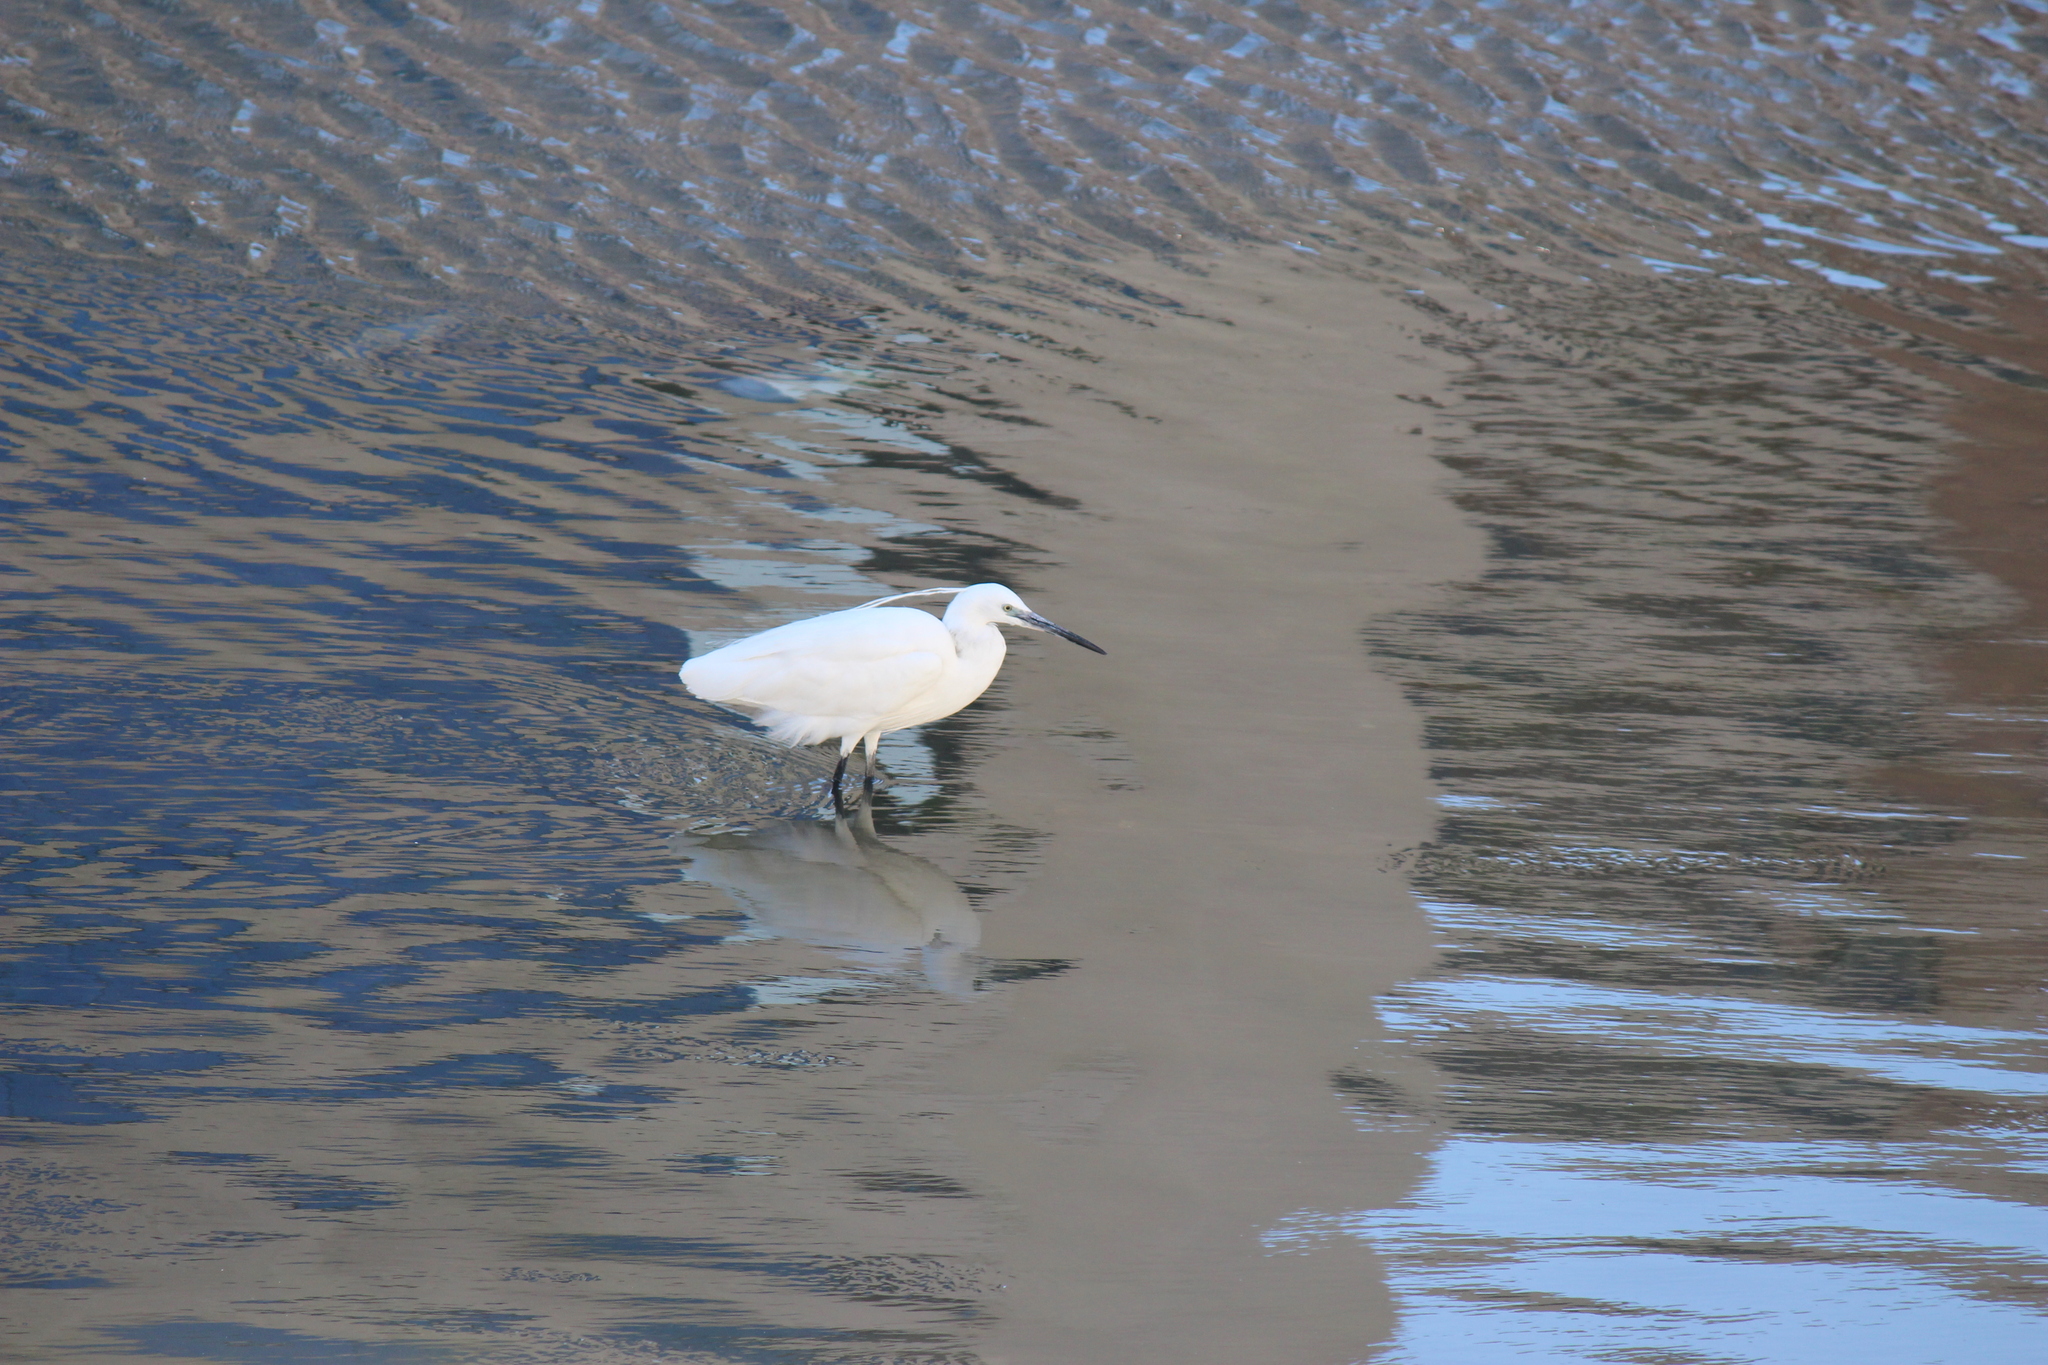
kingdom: Animalia
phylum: Chordata
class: Aves
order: Pelecaniformes
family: Ardeidae
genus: Egretta
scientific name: Egretta garzetta
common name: Little egret
